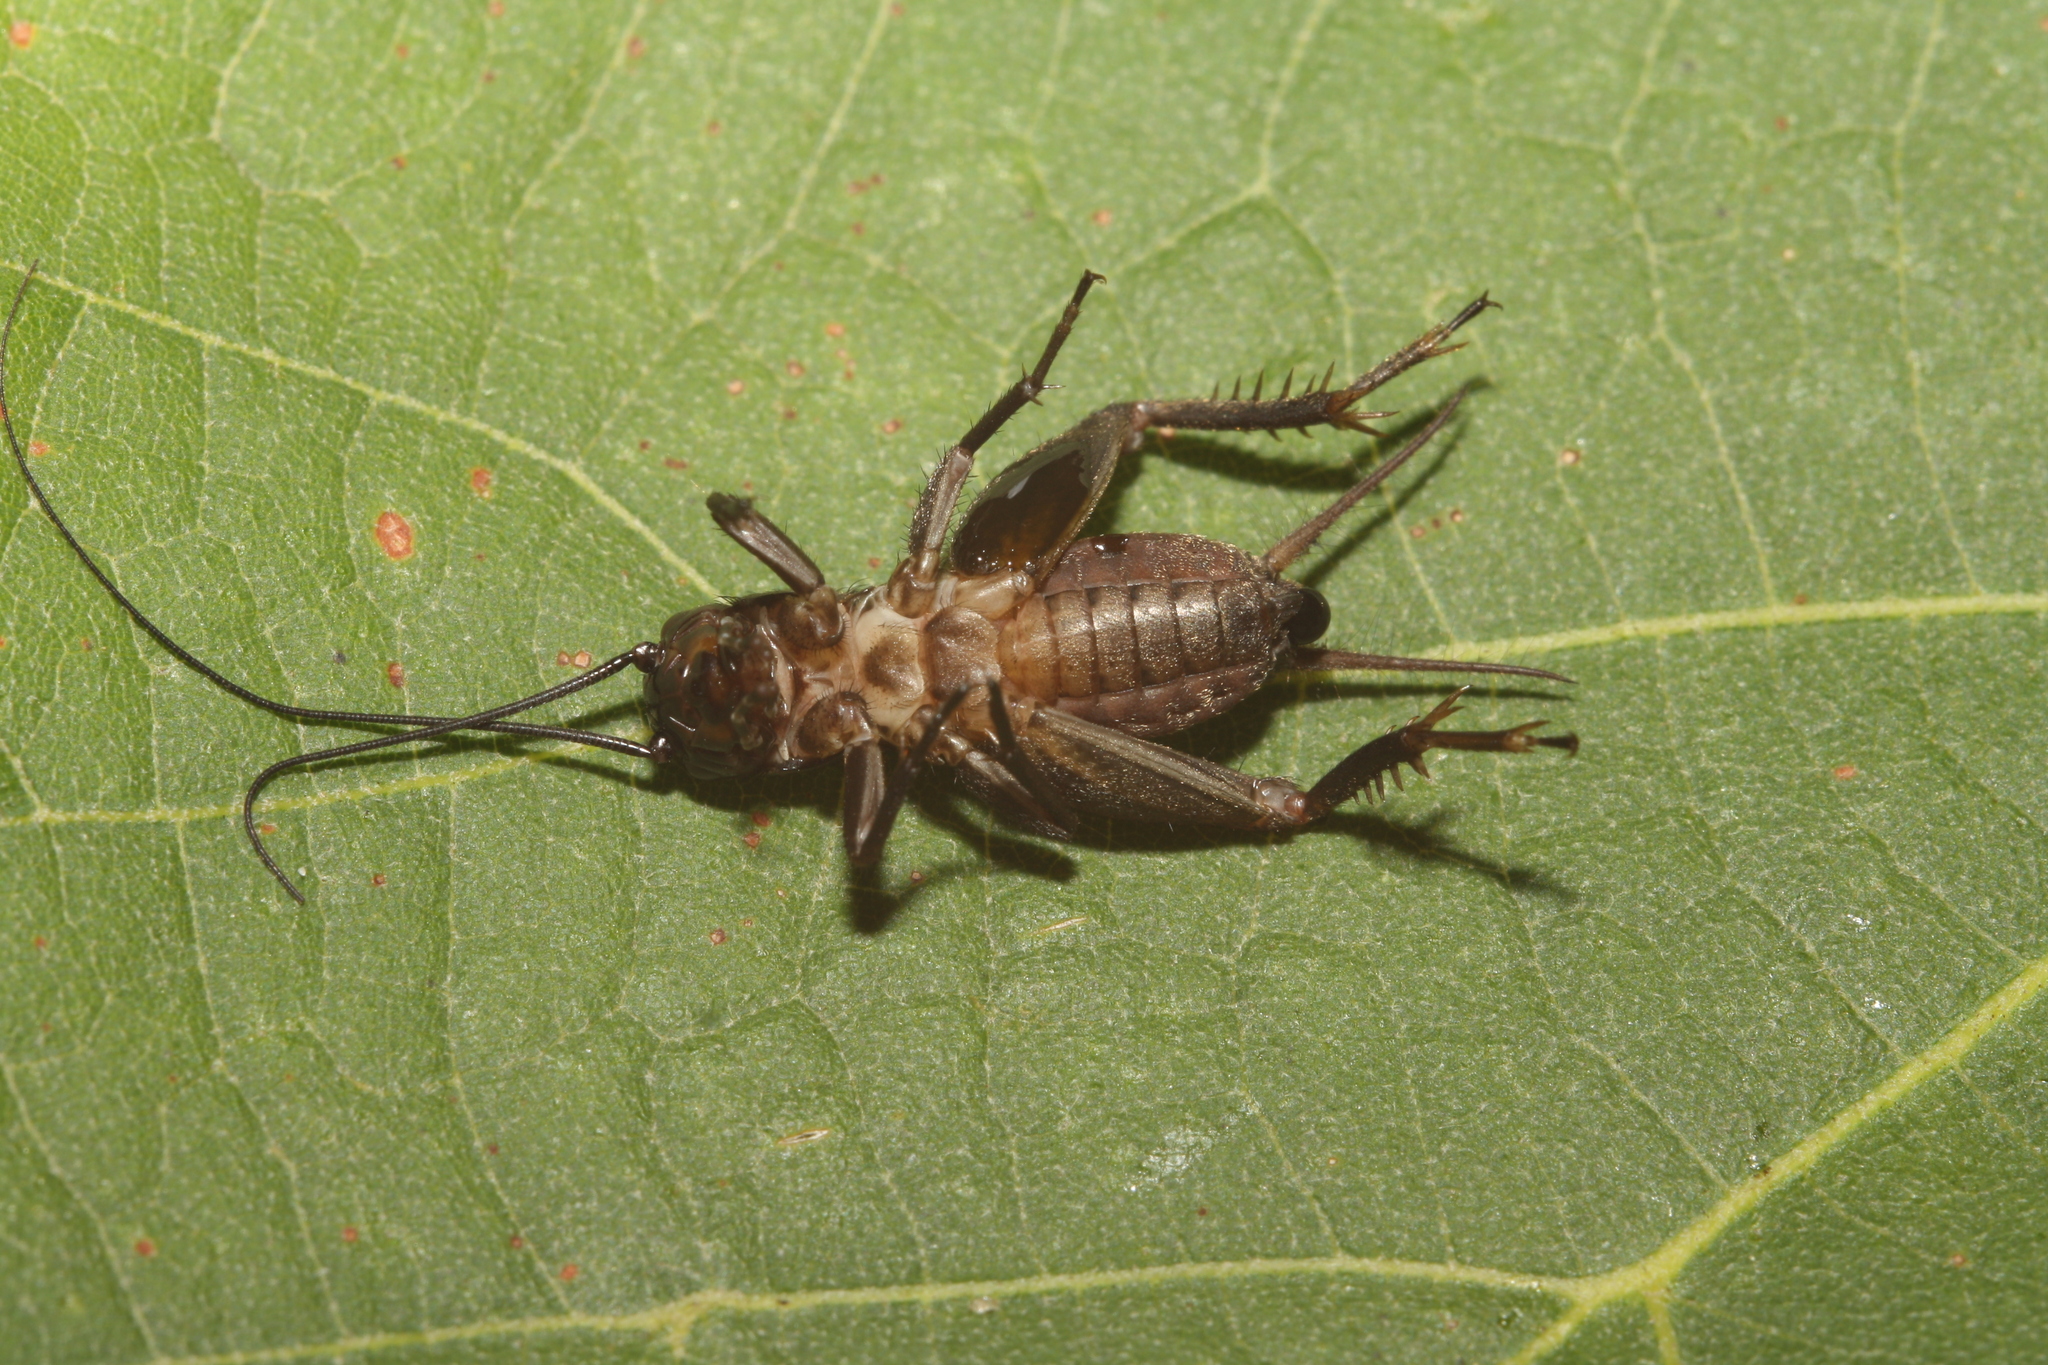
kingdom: Animalia
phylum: Arthropoda
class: Insecta
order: Orthoptera
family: Gryllidae
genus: Melanogryllus
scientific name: Melanogryllus desertus
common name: Desert cricket
